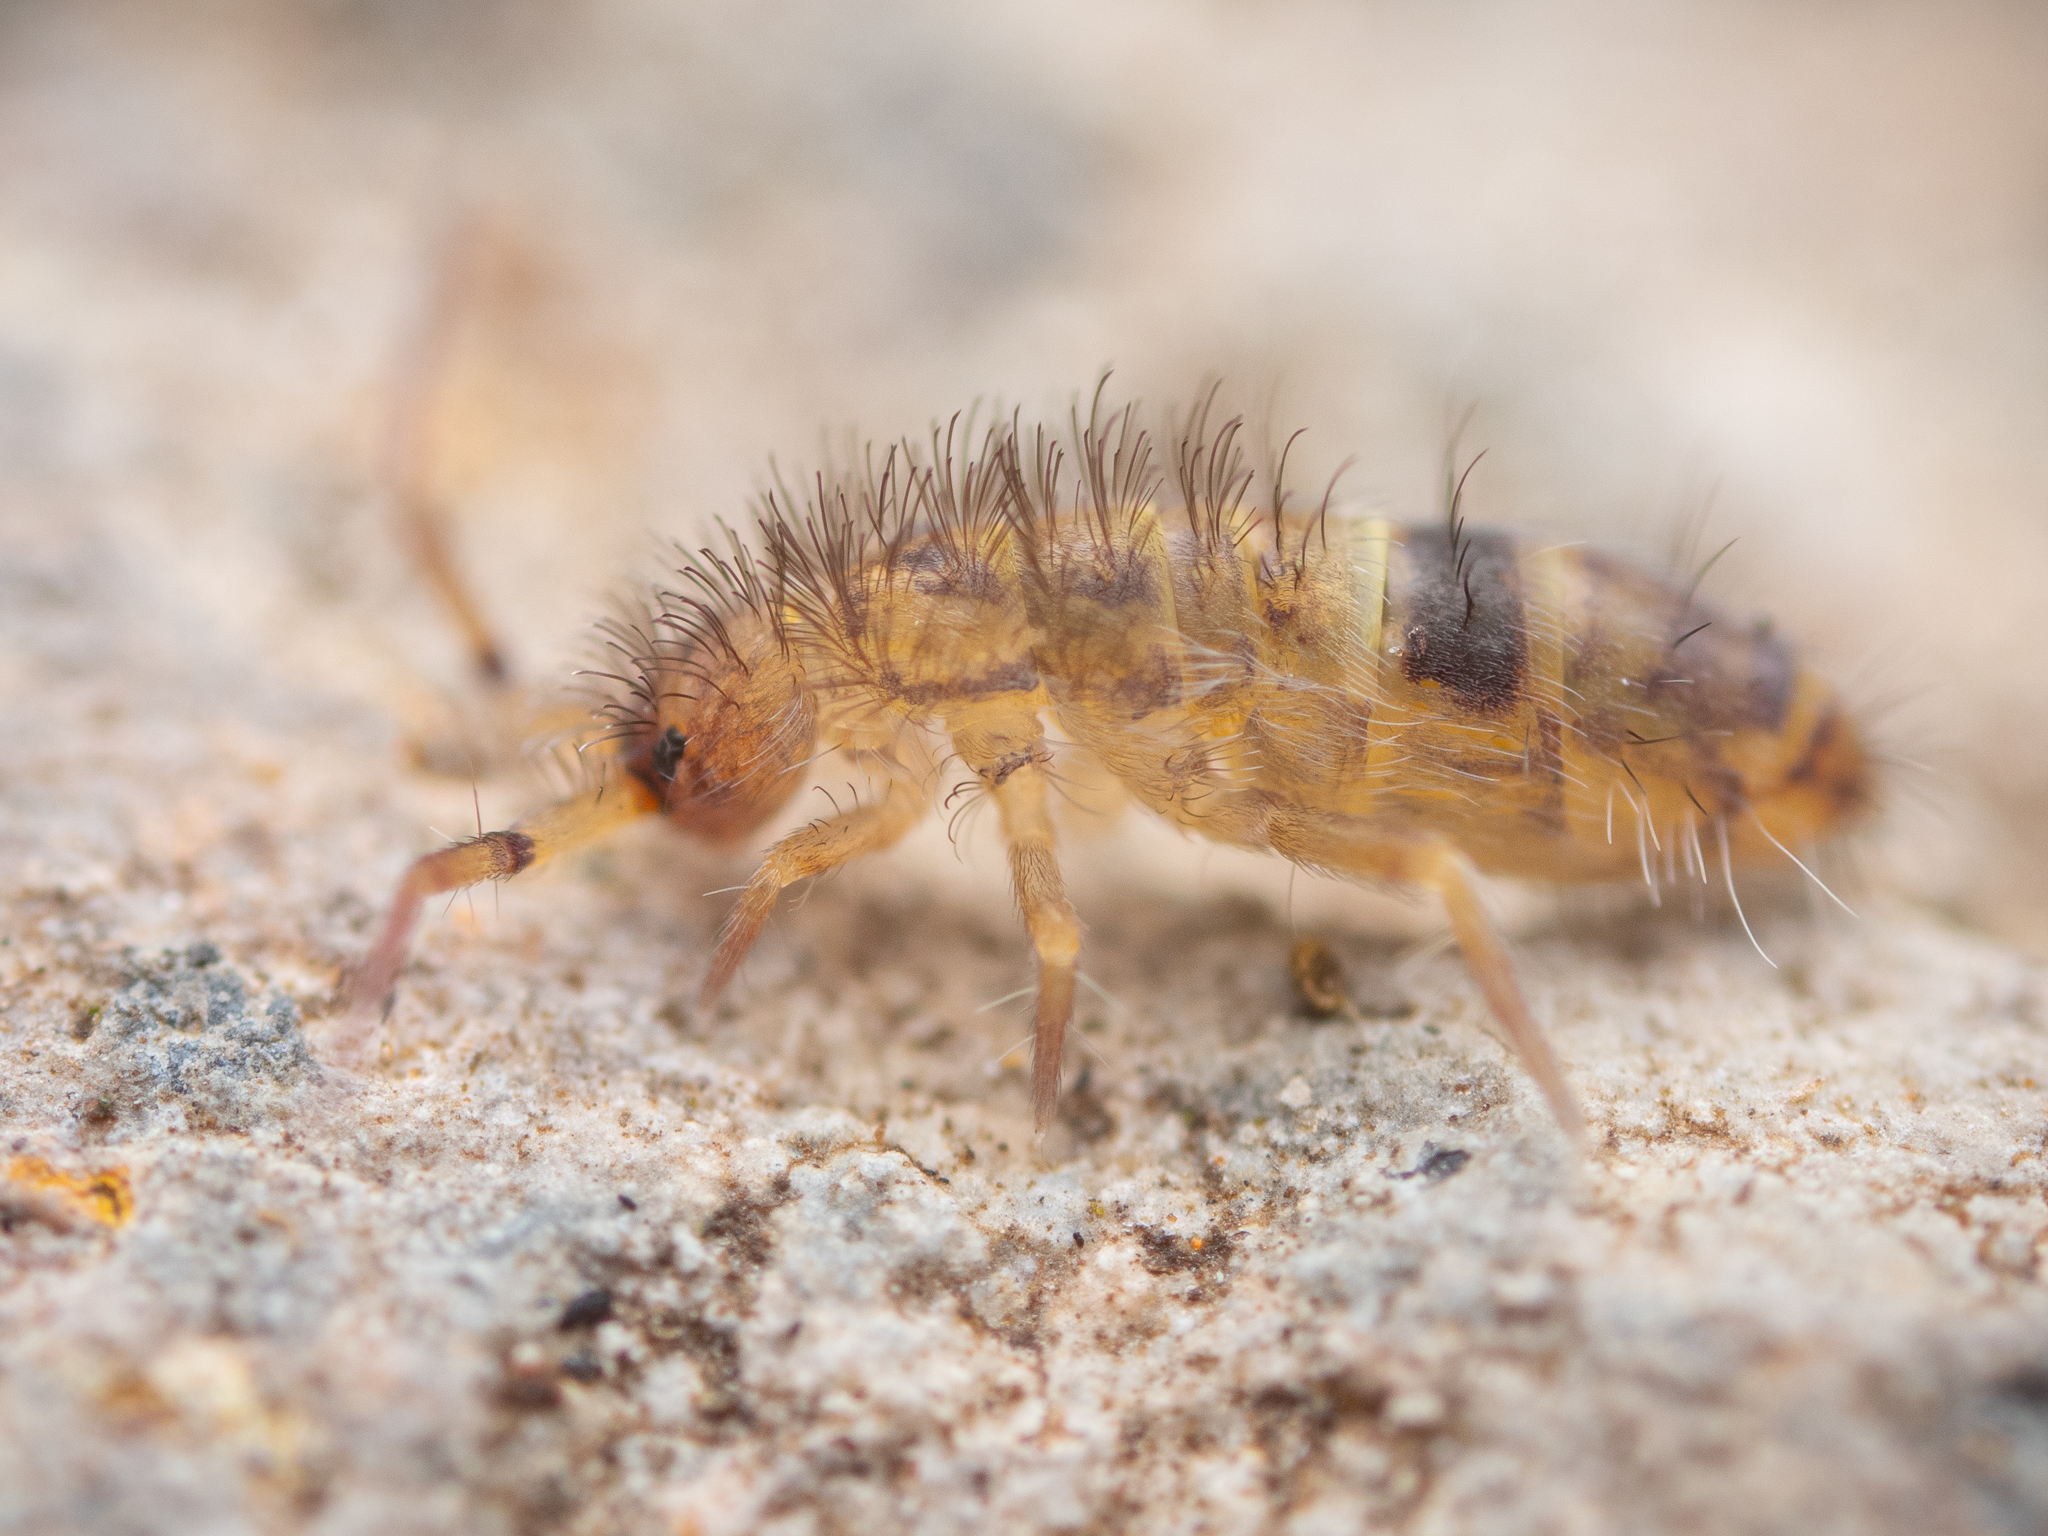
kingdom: Animalia
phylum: Arthropoda
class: Collembola
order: Entomobryomorpha
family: Orchesellidae
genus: Orchesella
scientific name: Orchesella cincta
